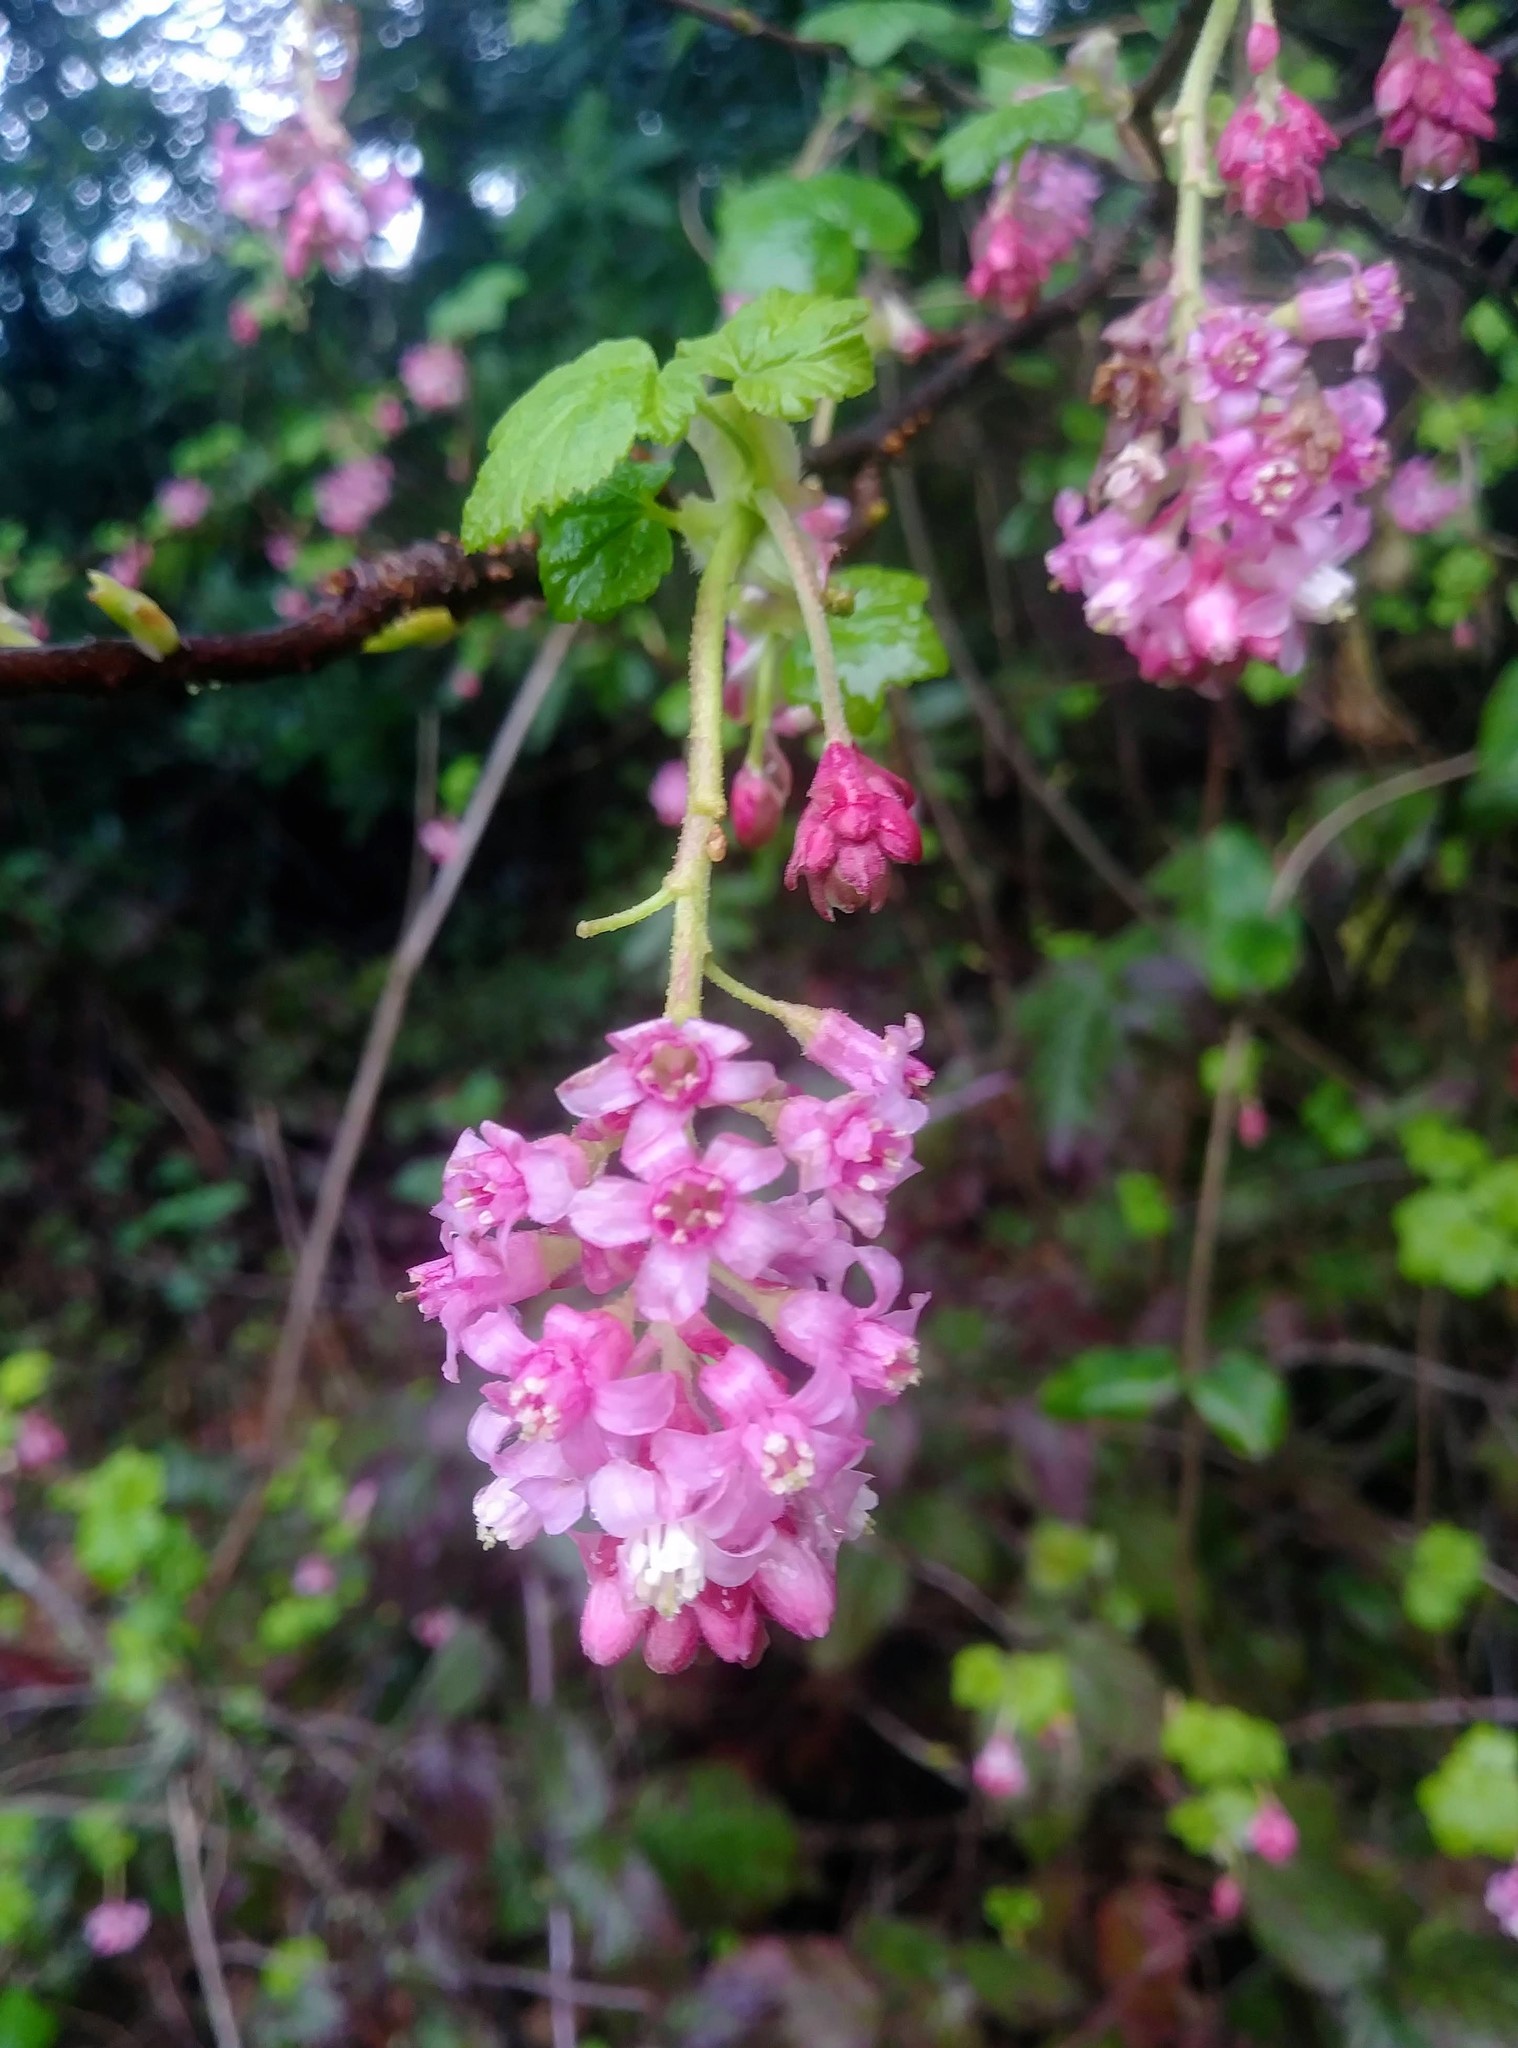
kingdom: Plantae
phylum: Tracheophyta
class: Magnoliopsida
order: Saxifragales
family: Grossulariaceae
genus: Ribes
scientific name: Ribes sanguineum
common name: Flowering currant
